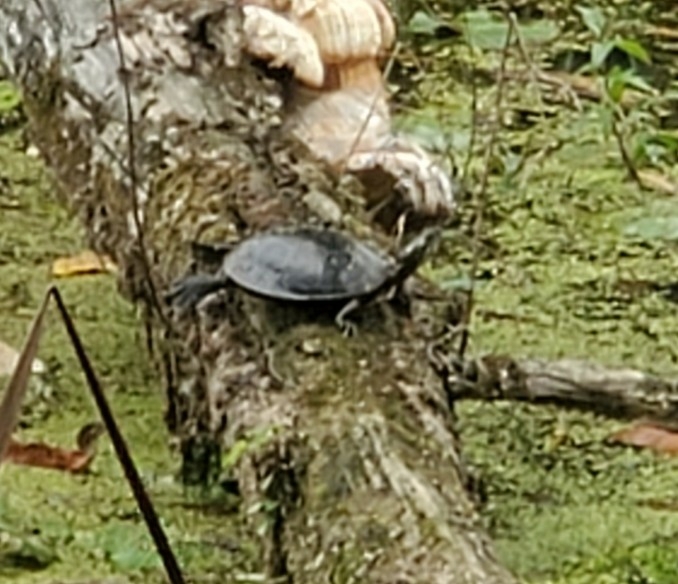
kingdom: Animalia
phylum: Chordata
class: Testudines
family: Emydidae
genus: Chrysemys
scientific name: Chrysemys picta
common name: Painted turtle
